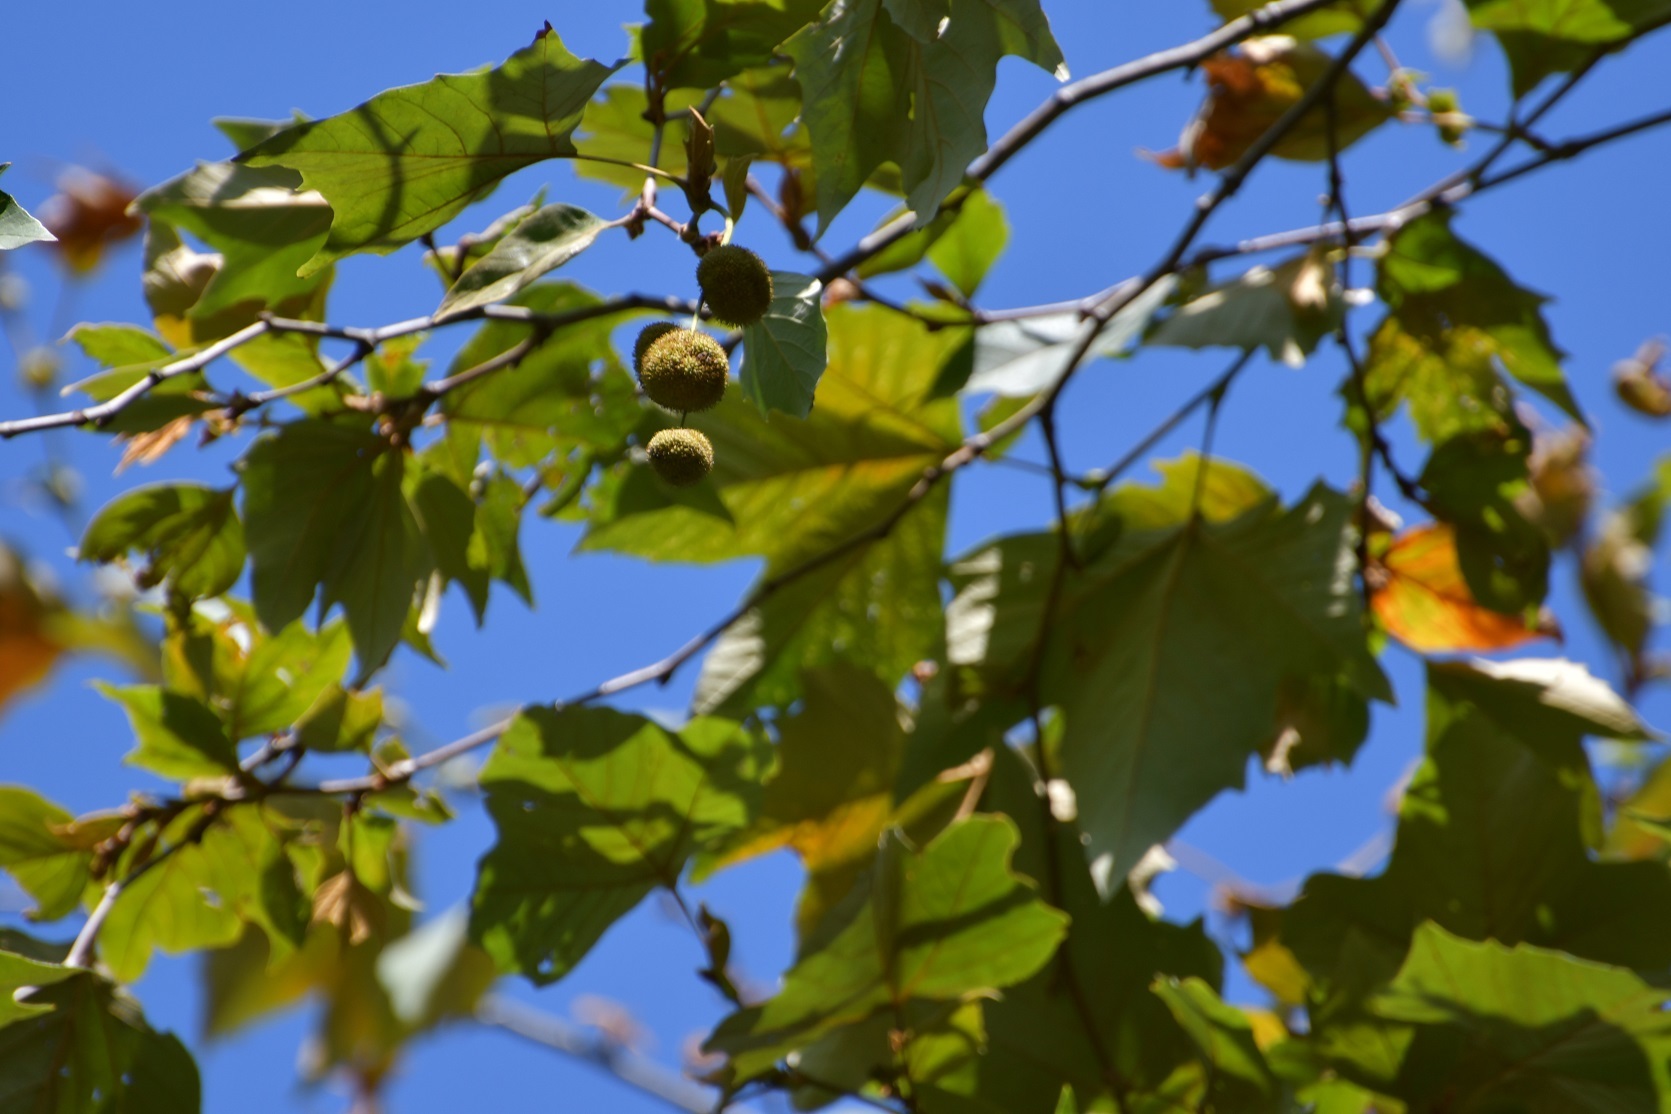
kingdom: Plantae
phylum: Tracheophyta
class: Magnoliopsida
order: Proteales
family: Platanaceae
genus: Platanus
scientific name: Platanus mexicana
